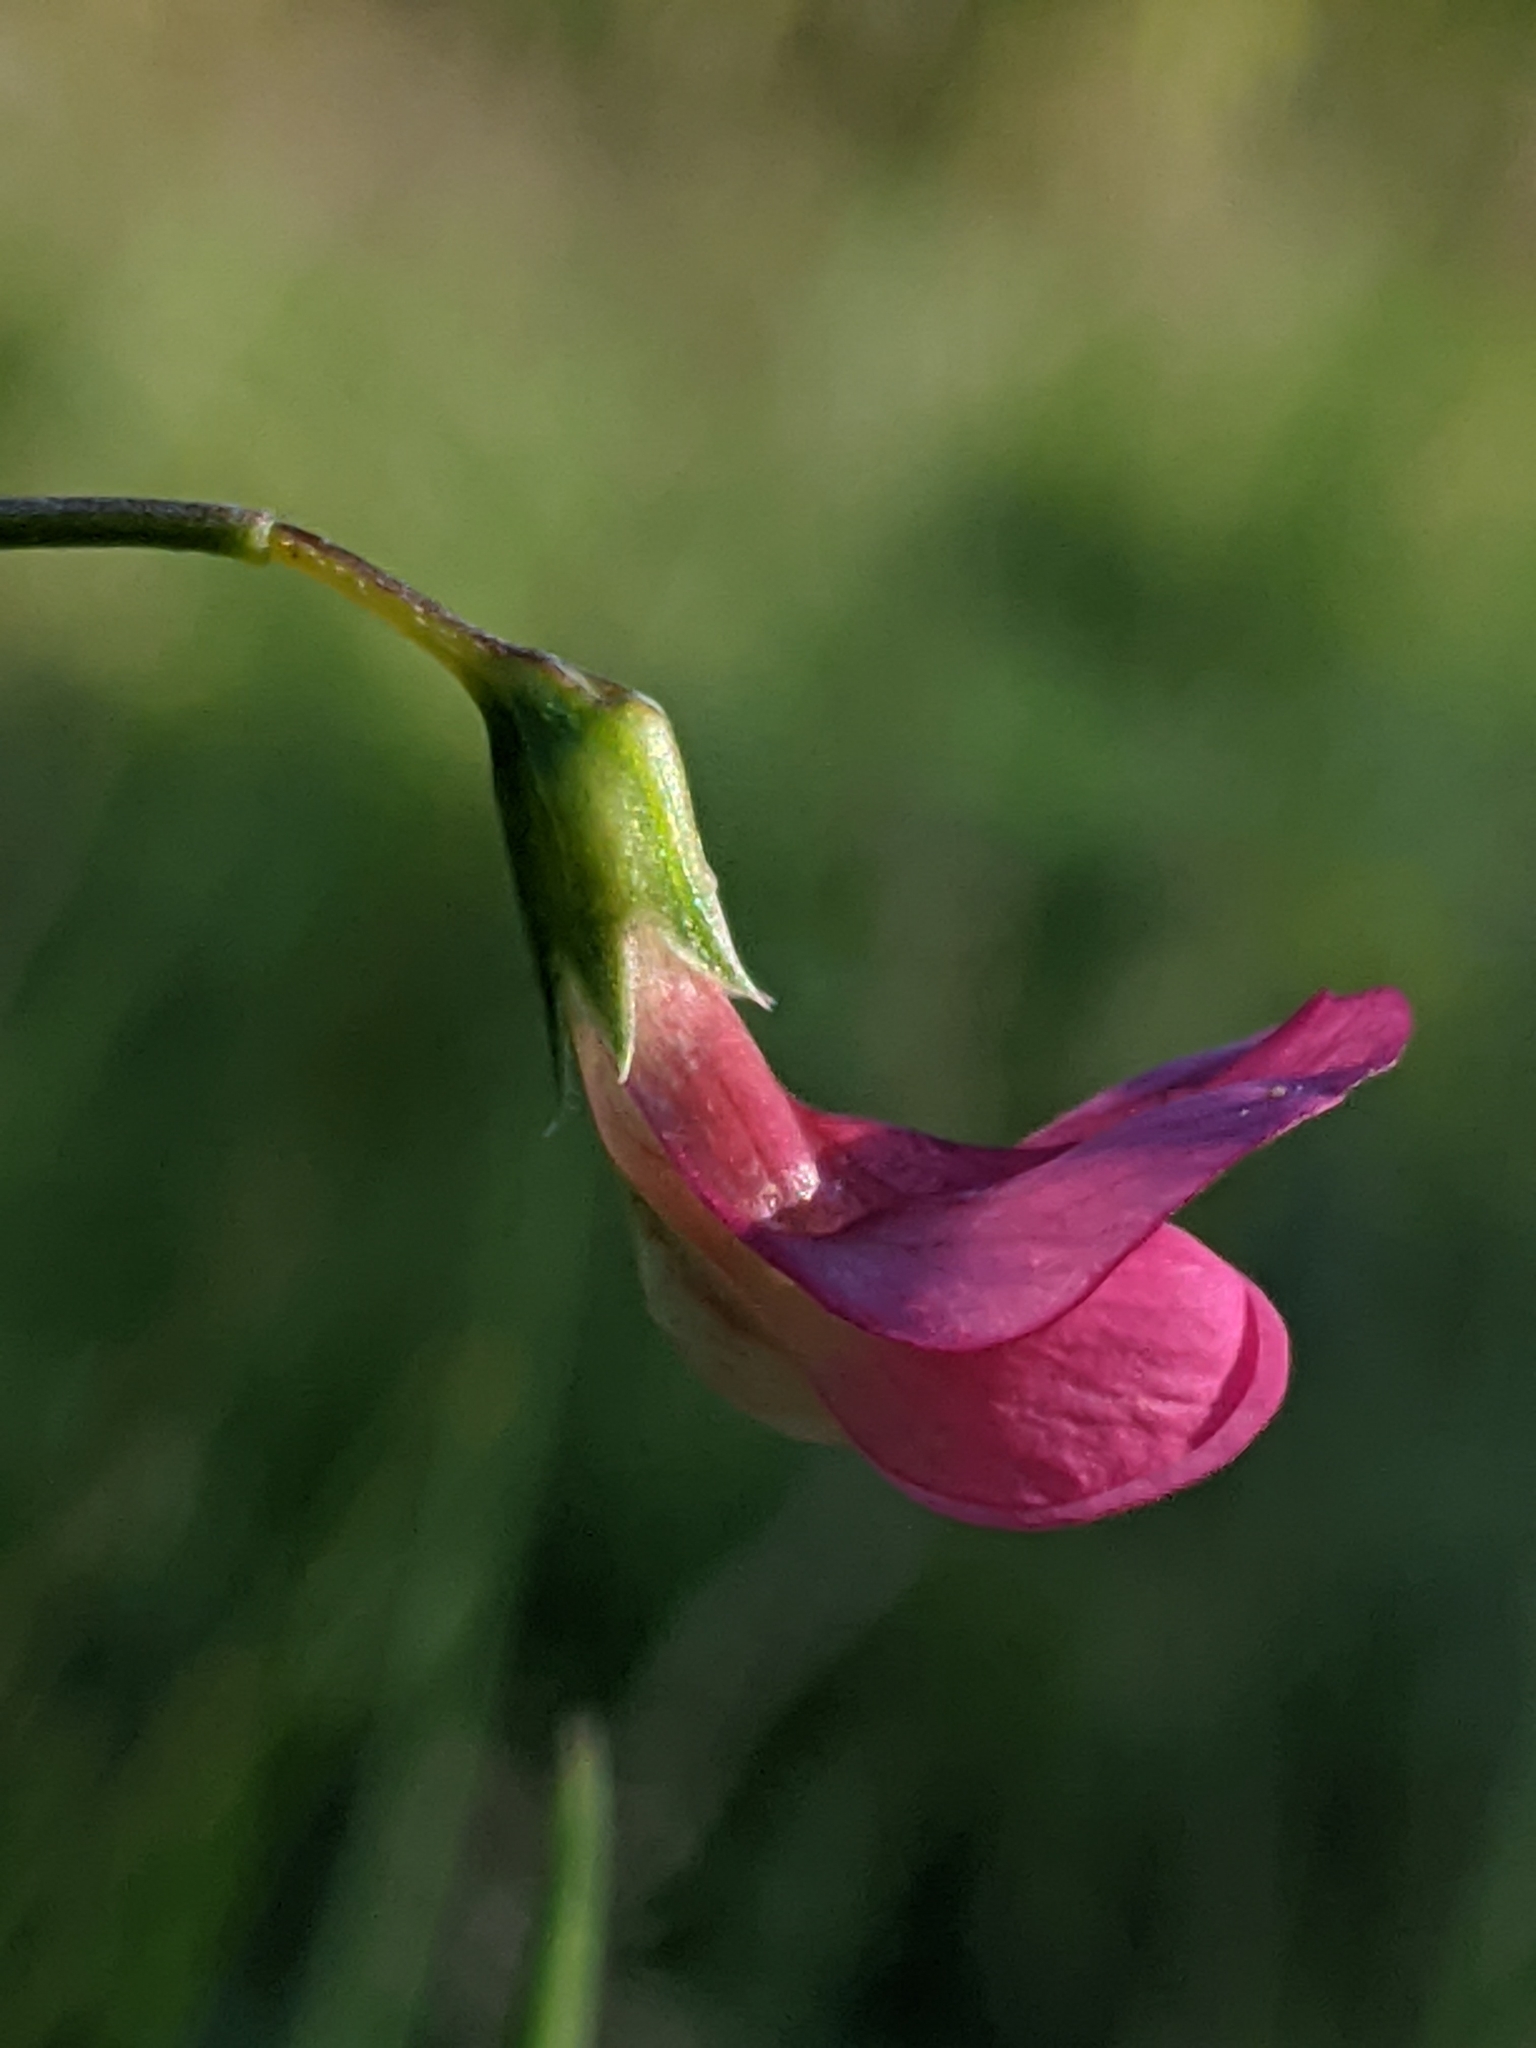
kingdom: Plantae
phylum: Tracheophyta
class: Magnoliopsida
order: Fabales
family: Fabaceae
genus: Lathyrus
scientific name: Lathyrus nissolia
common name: Grass vetchling
